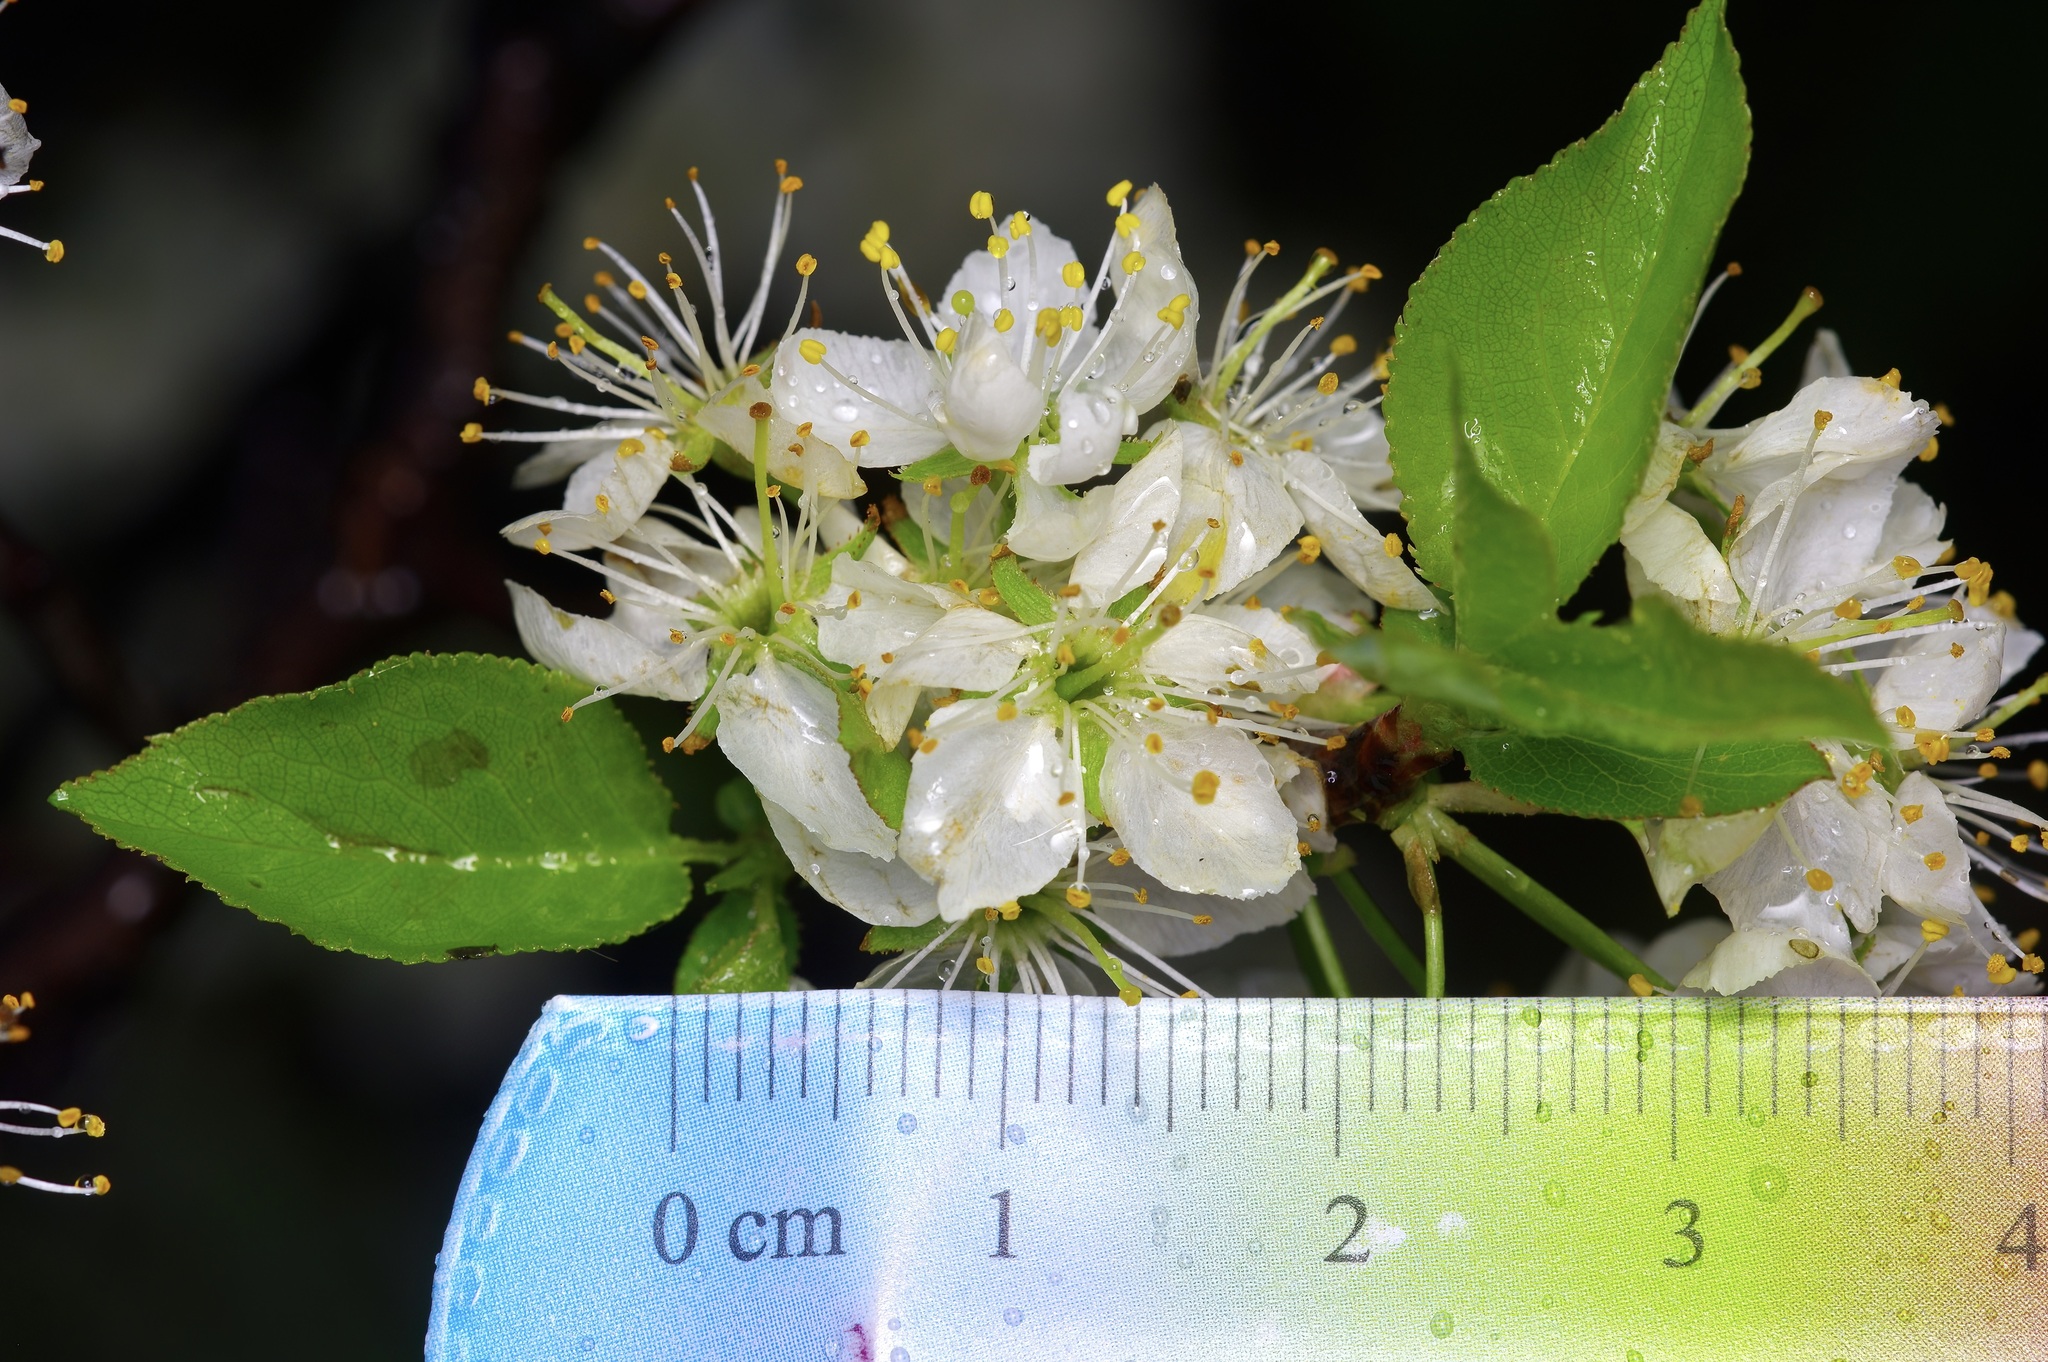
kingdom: Plantae
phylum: Tracheophyta
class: Magnoliopsida
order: Rosales
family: Rosaceae
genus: Prunus
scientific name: Prunus rivularis
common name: Creek plum
